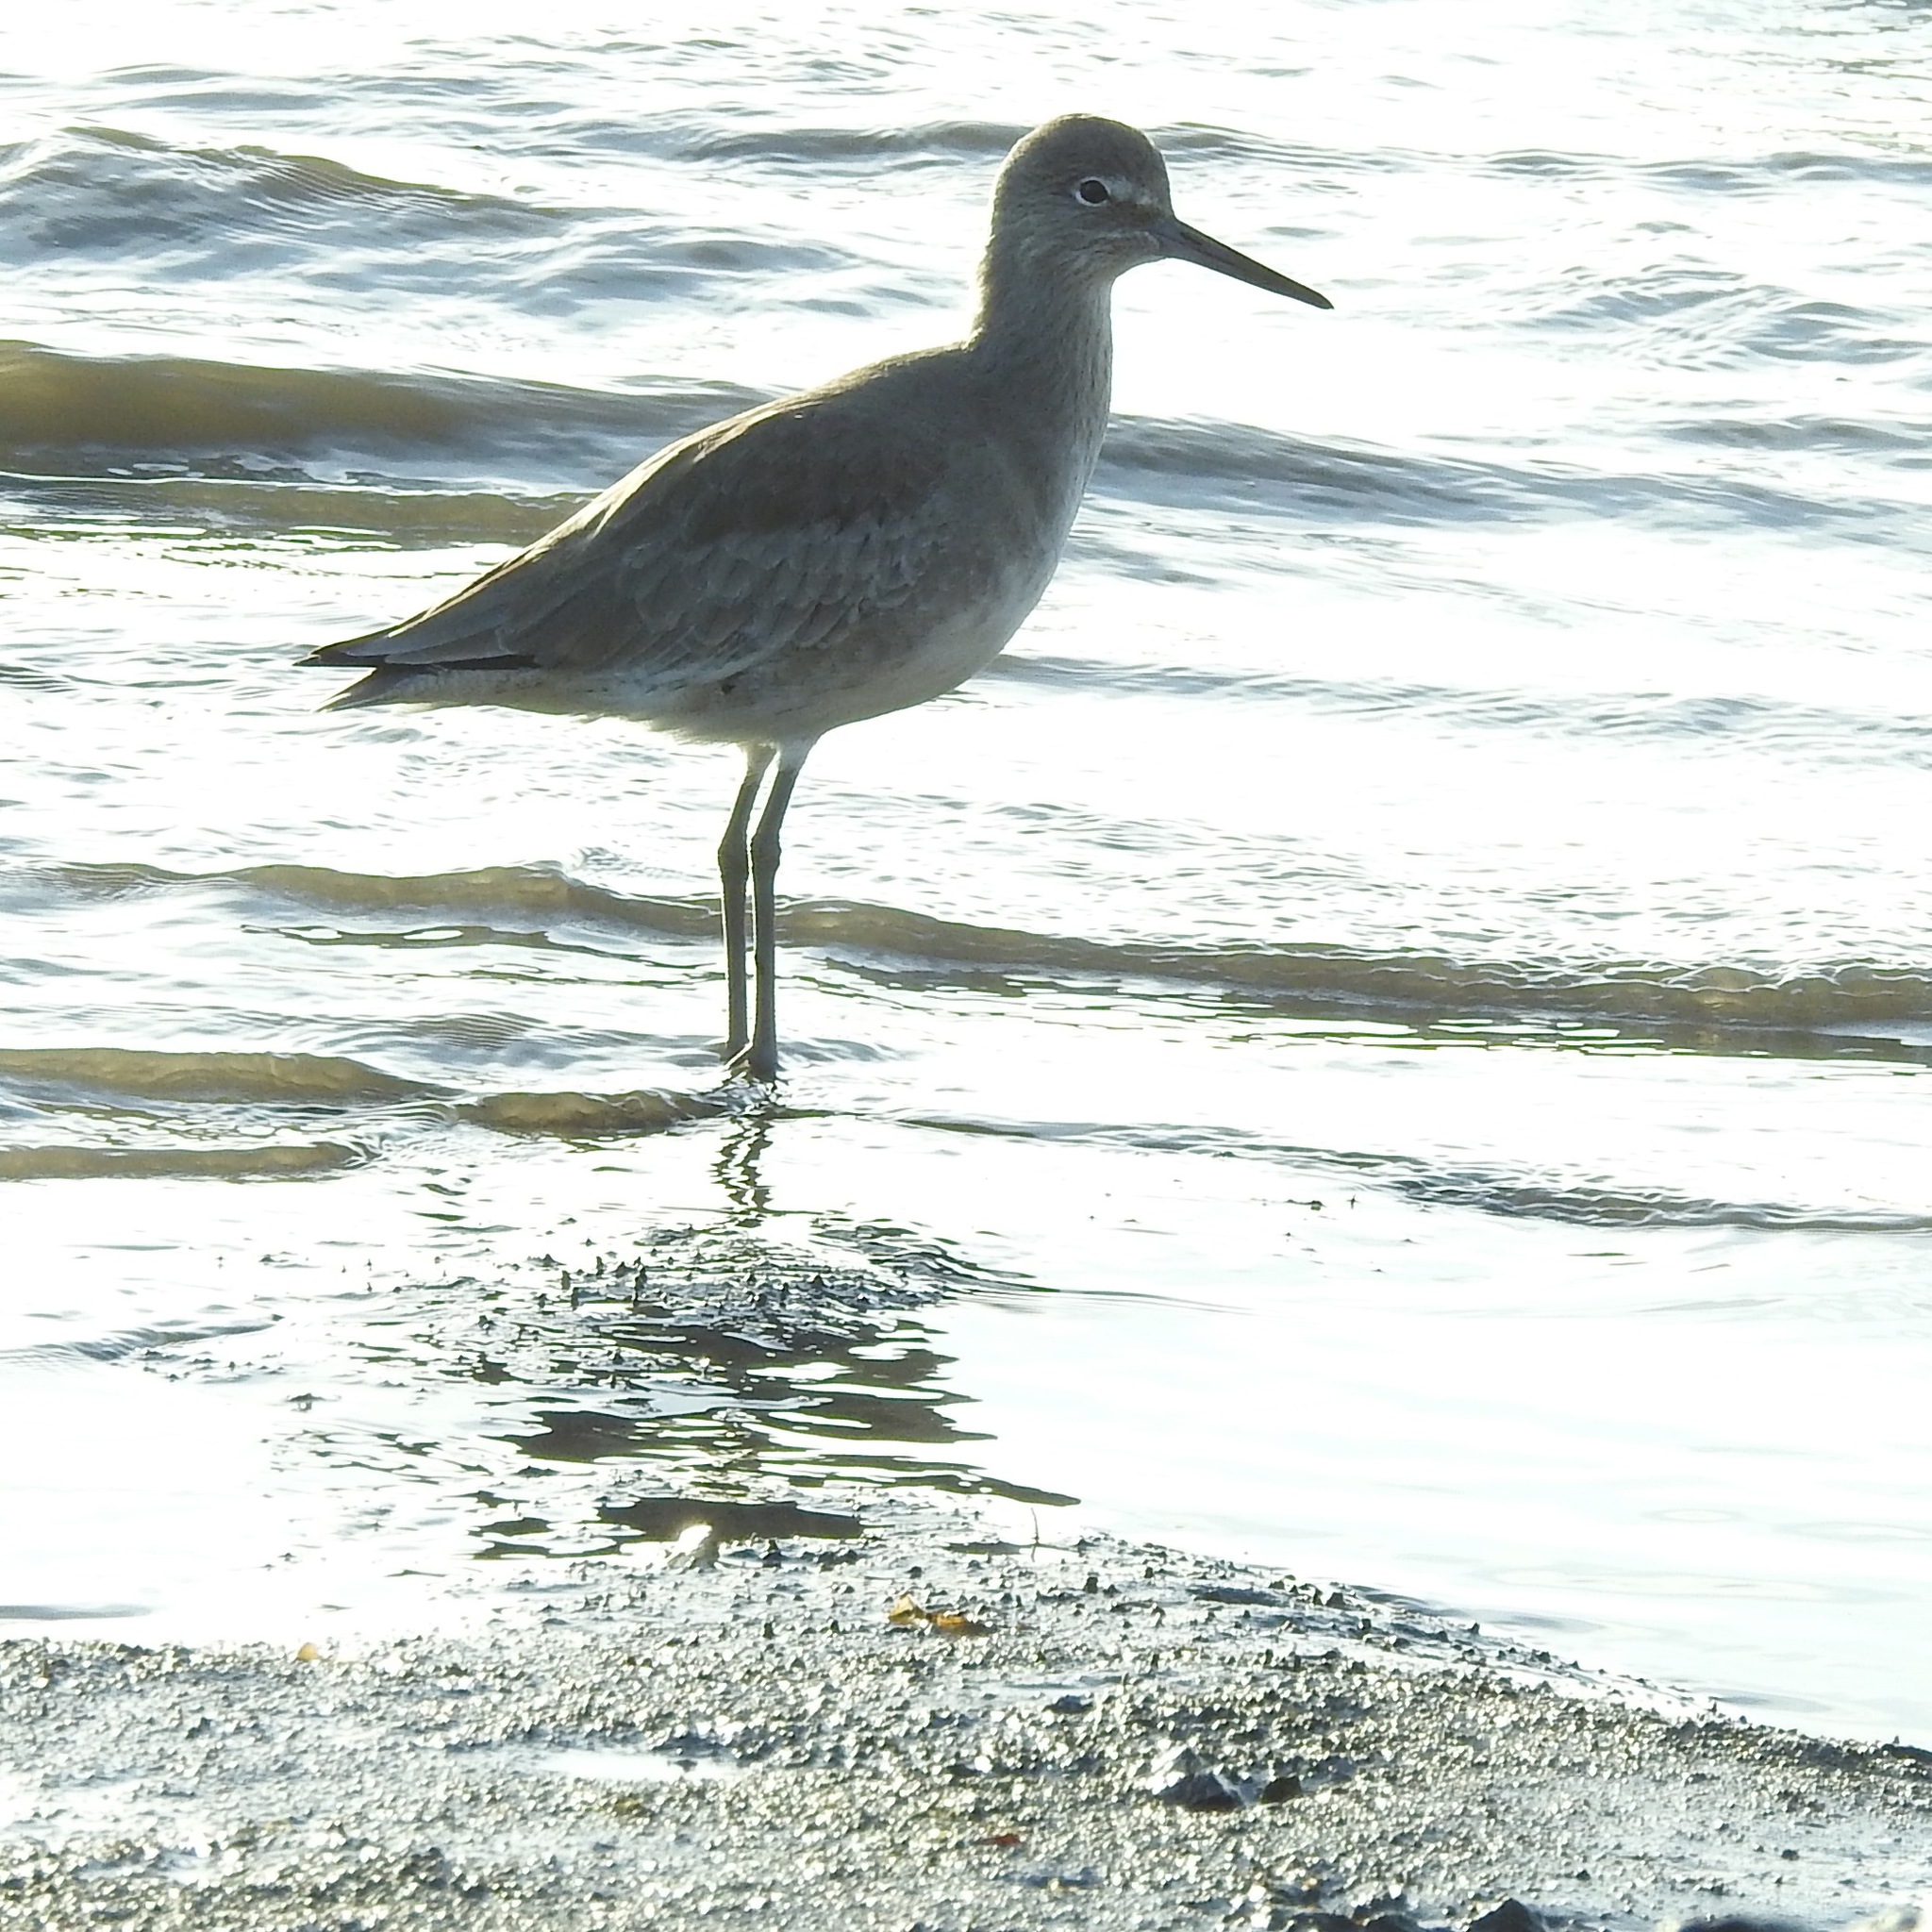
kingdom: Animalia
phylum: Chordata
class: Aves
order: Charadriiformes
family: Scolopacidae
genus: Tringa
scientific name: Tringa semipalmata
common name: Willet
